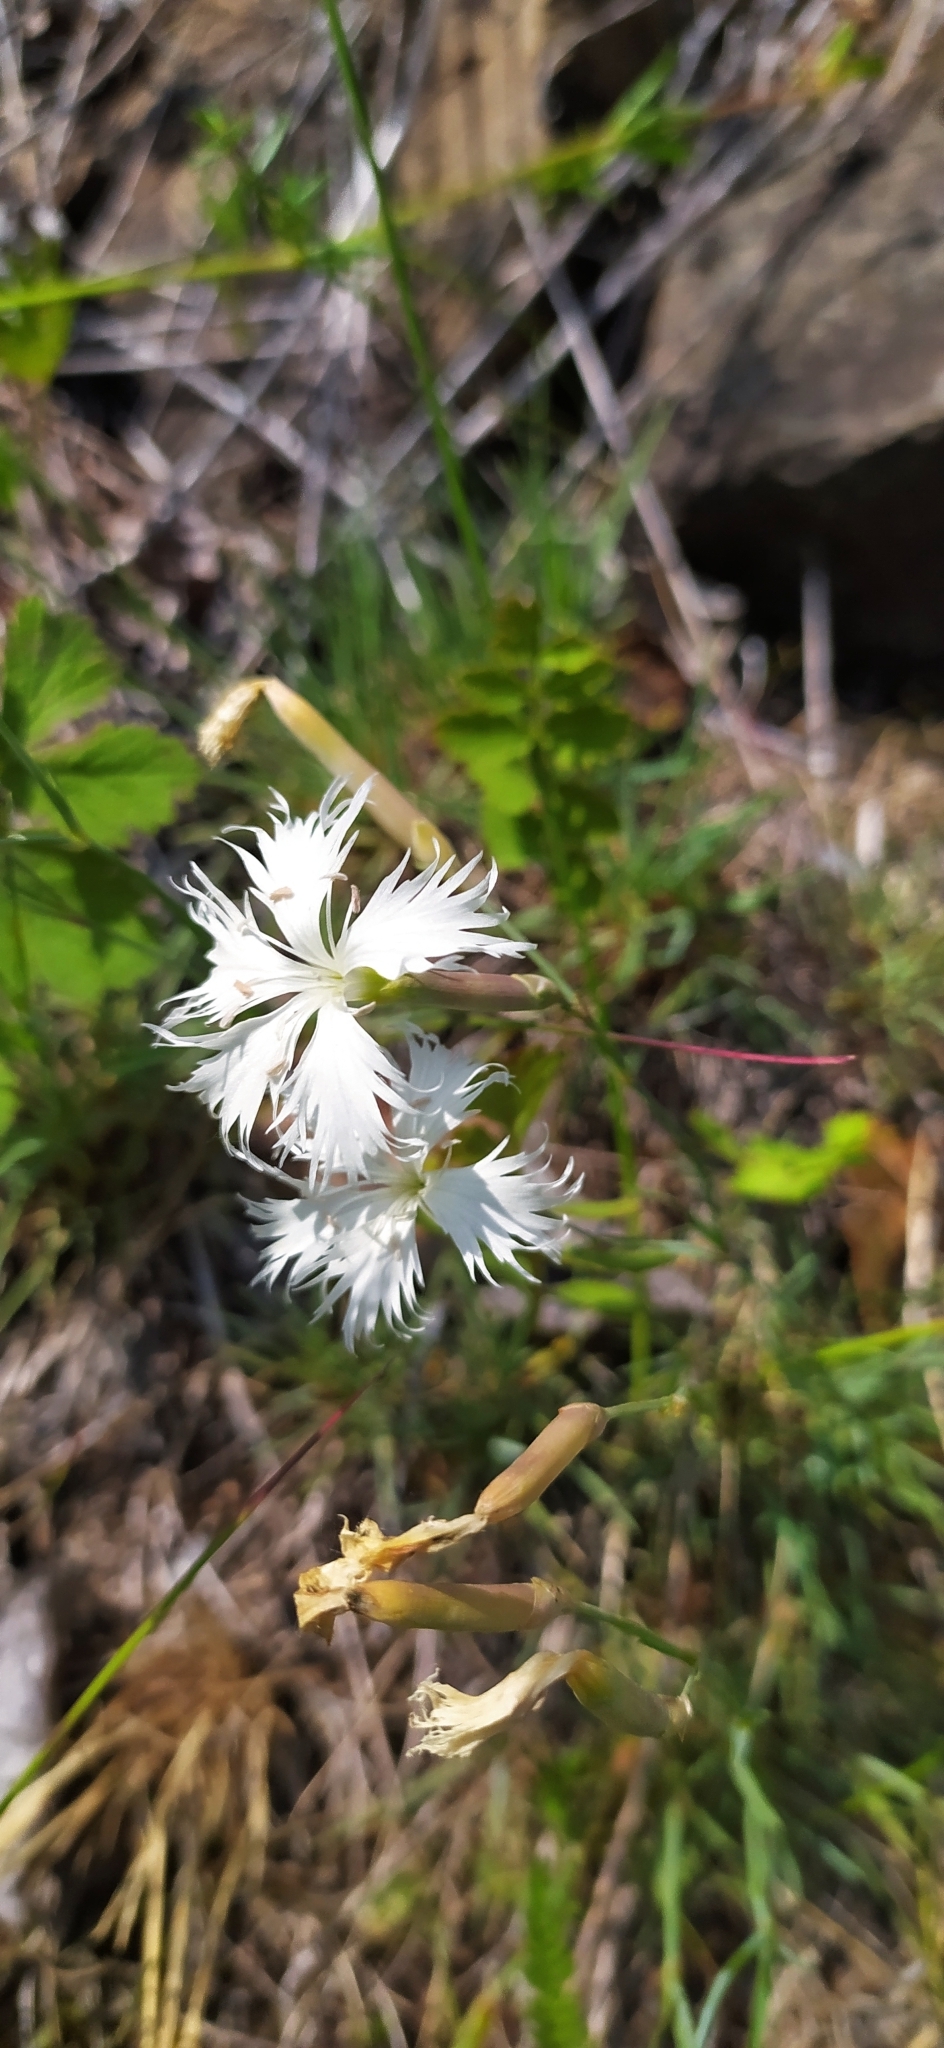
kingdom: Plantae
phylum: Tracheophyta
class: Magnoliopsida
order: Caryophyllales
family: Caryophyllaceae
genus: Dianthus
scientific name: Dianthus acicularis
